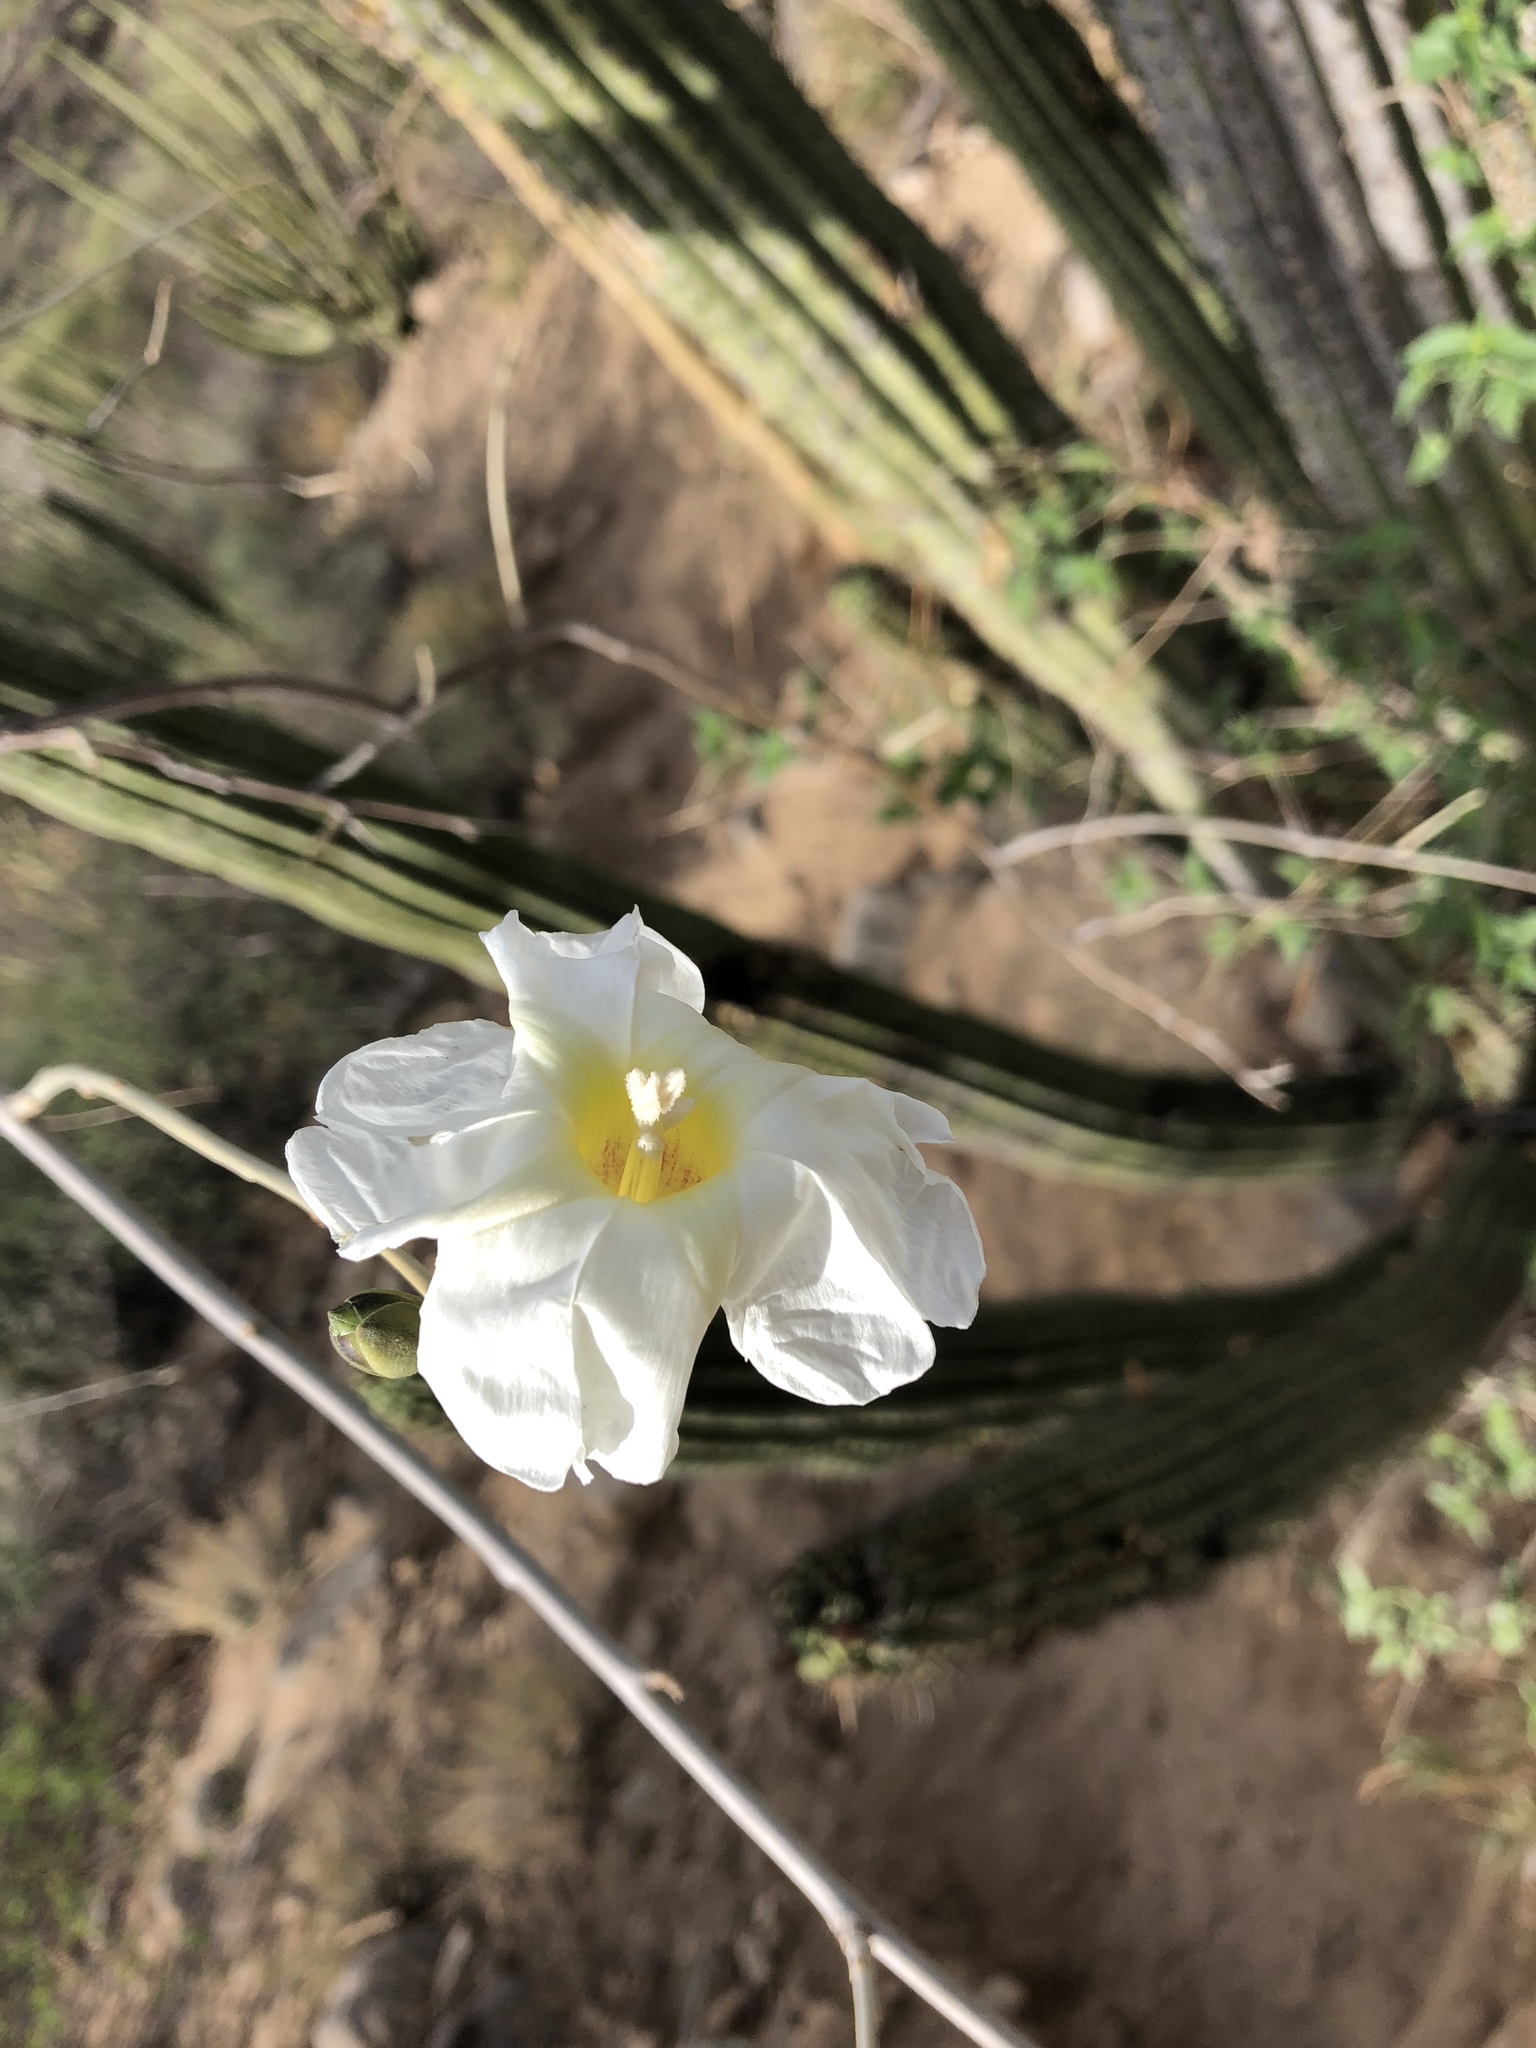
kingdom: Plantae
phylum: Tracheophyta
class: Magnoliopsida
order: Solanales
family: Convolvulaceae
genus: Ipomoea
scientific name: Ipomoea arborescens
